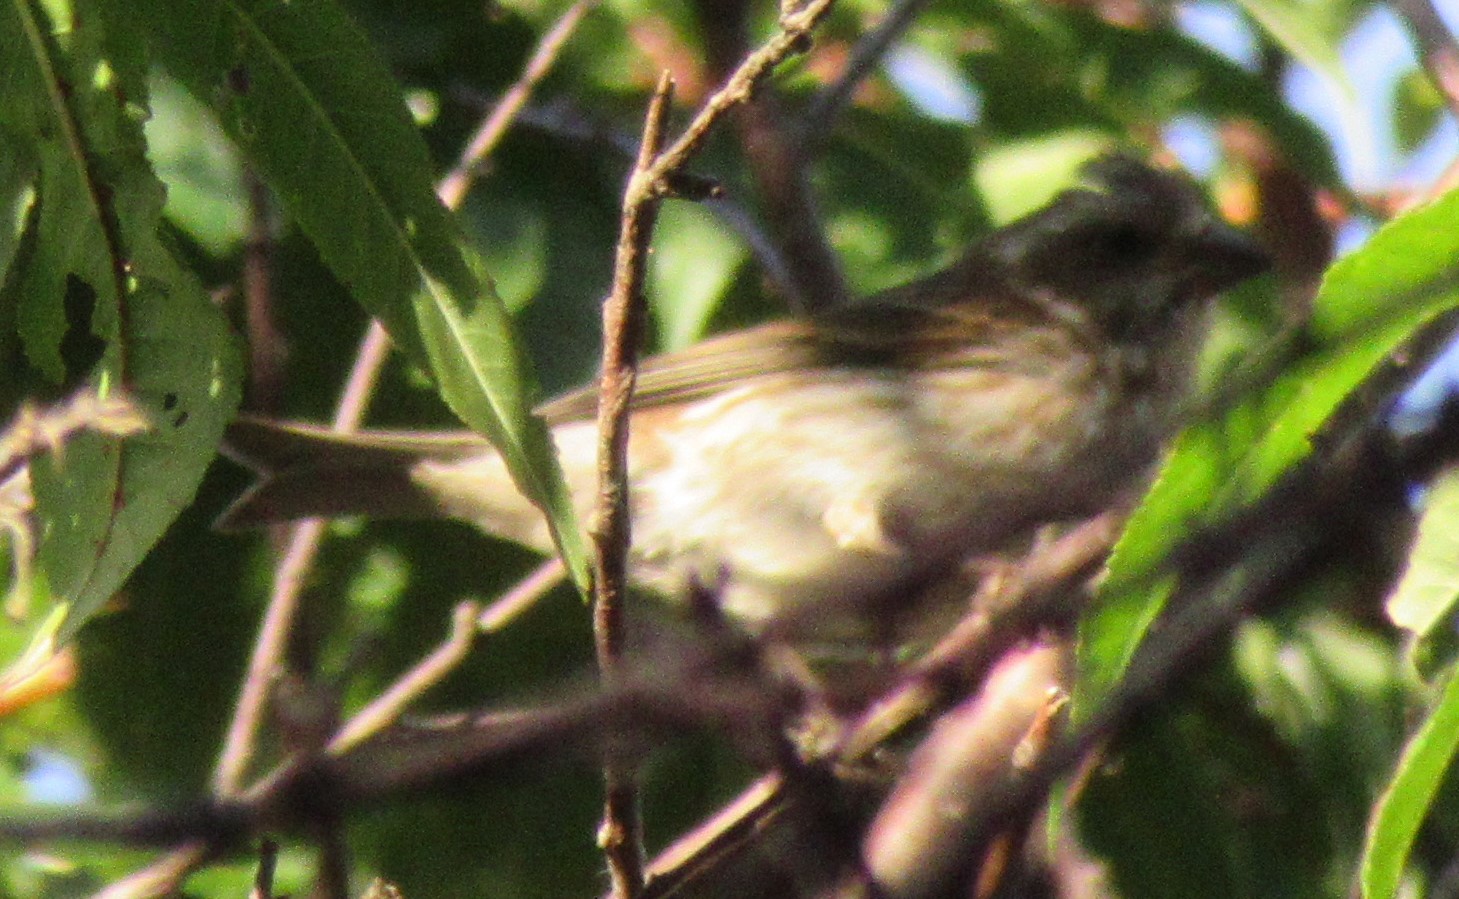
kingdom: Animalia
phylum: Chordata
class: Aves
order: Passeriformes
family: Fringillidae
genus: Haemorhous
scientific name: Haemorhous purpureus
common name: Purple finch
